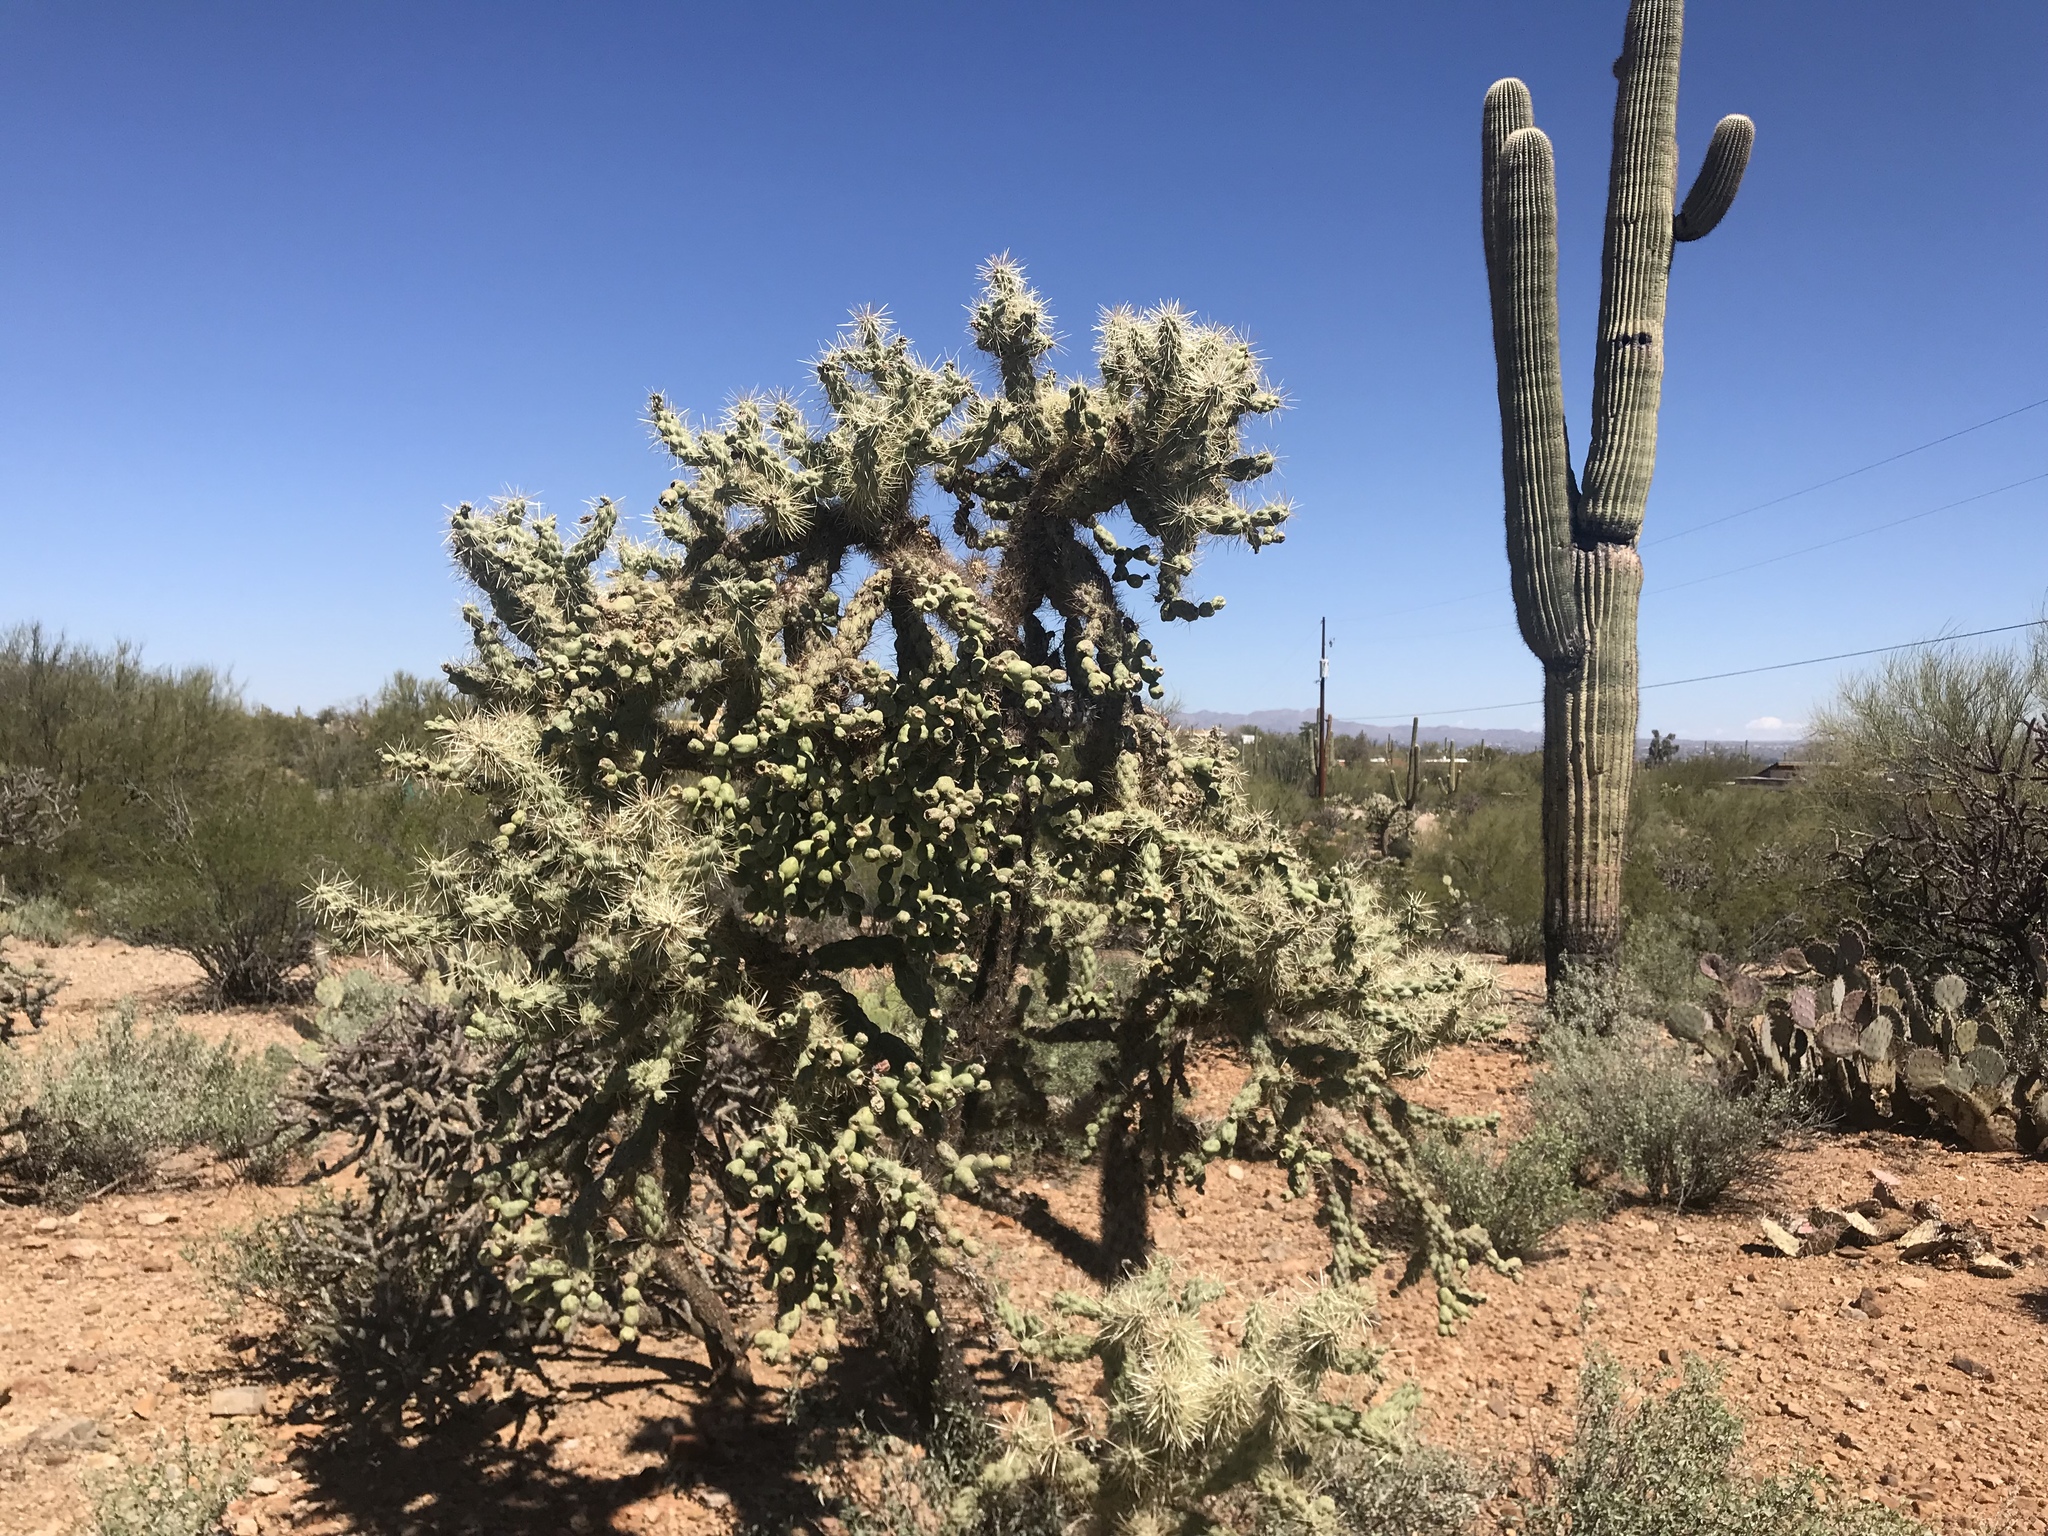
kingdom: Plantae
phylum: Tracheophyta
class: Magnoliopsida
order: Caryophyllales
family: Cactaceae
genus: Cylindropuntia
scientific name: Cylindropuntia fulgida
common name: Jumping cholla
